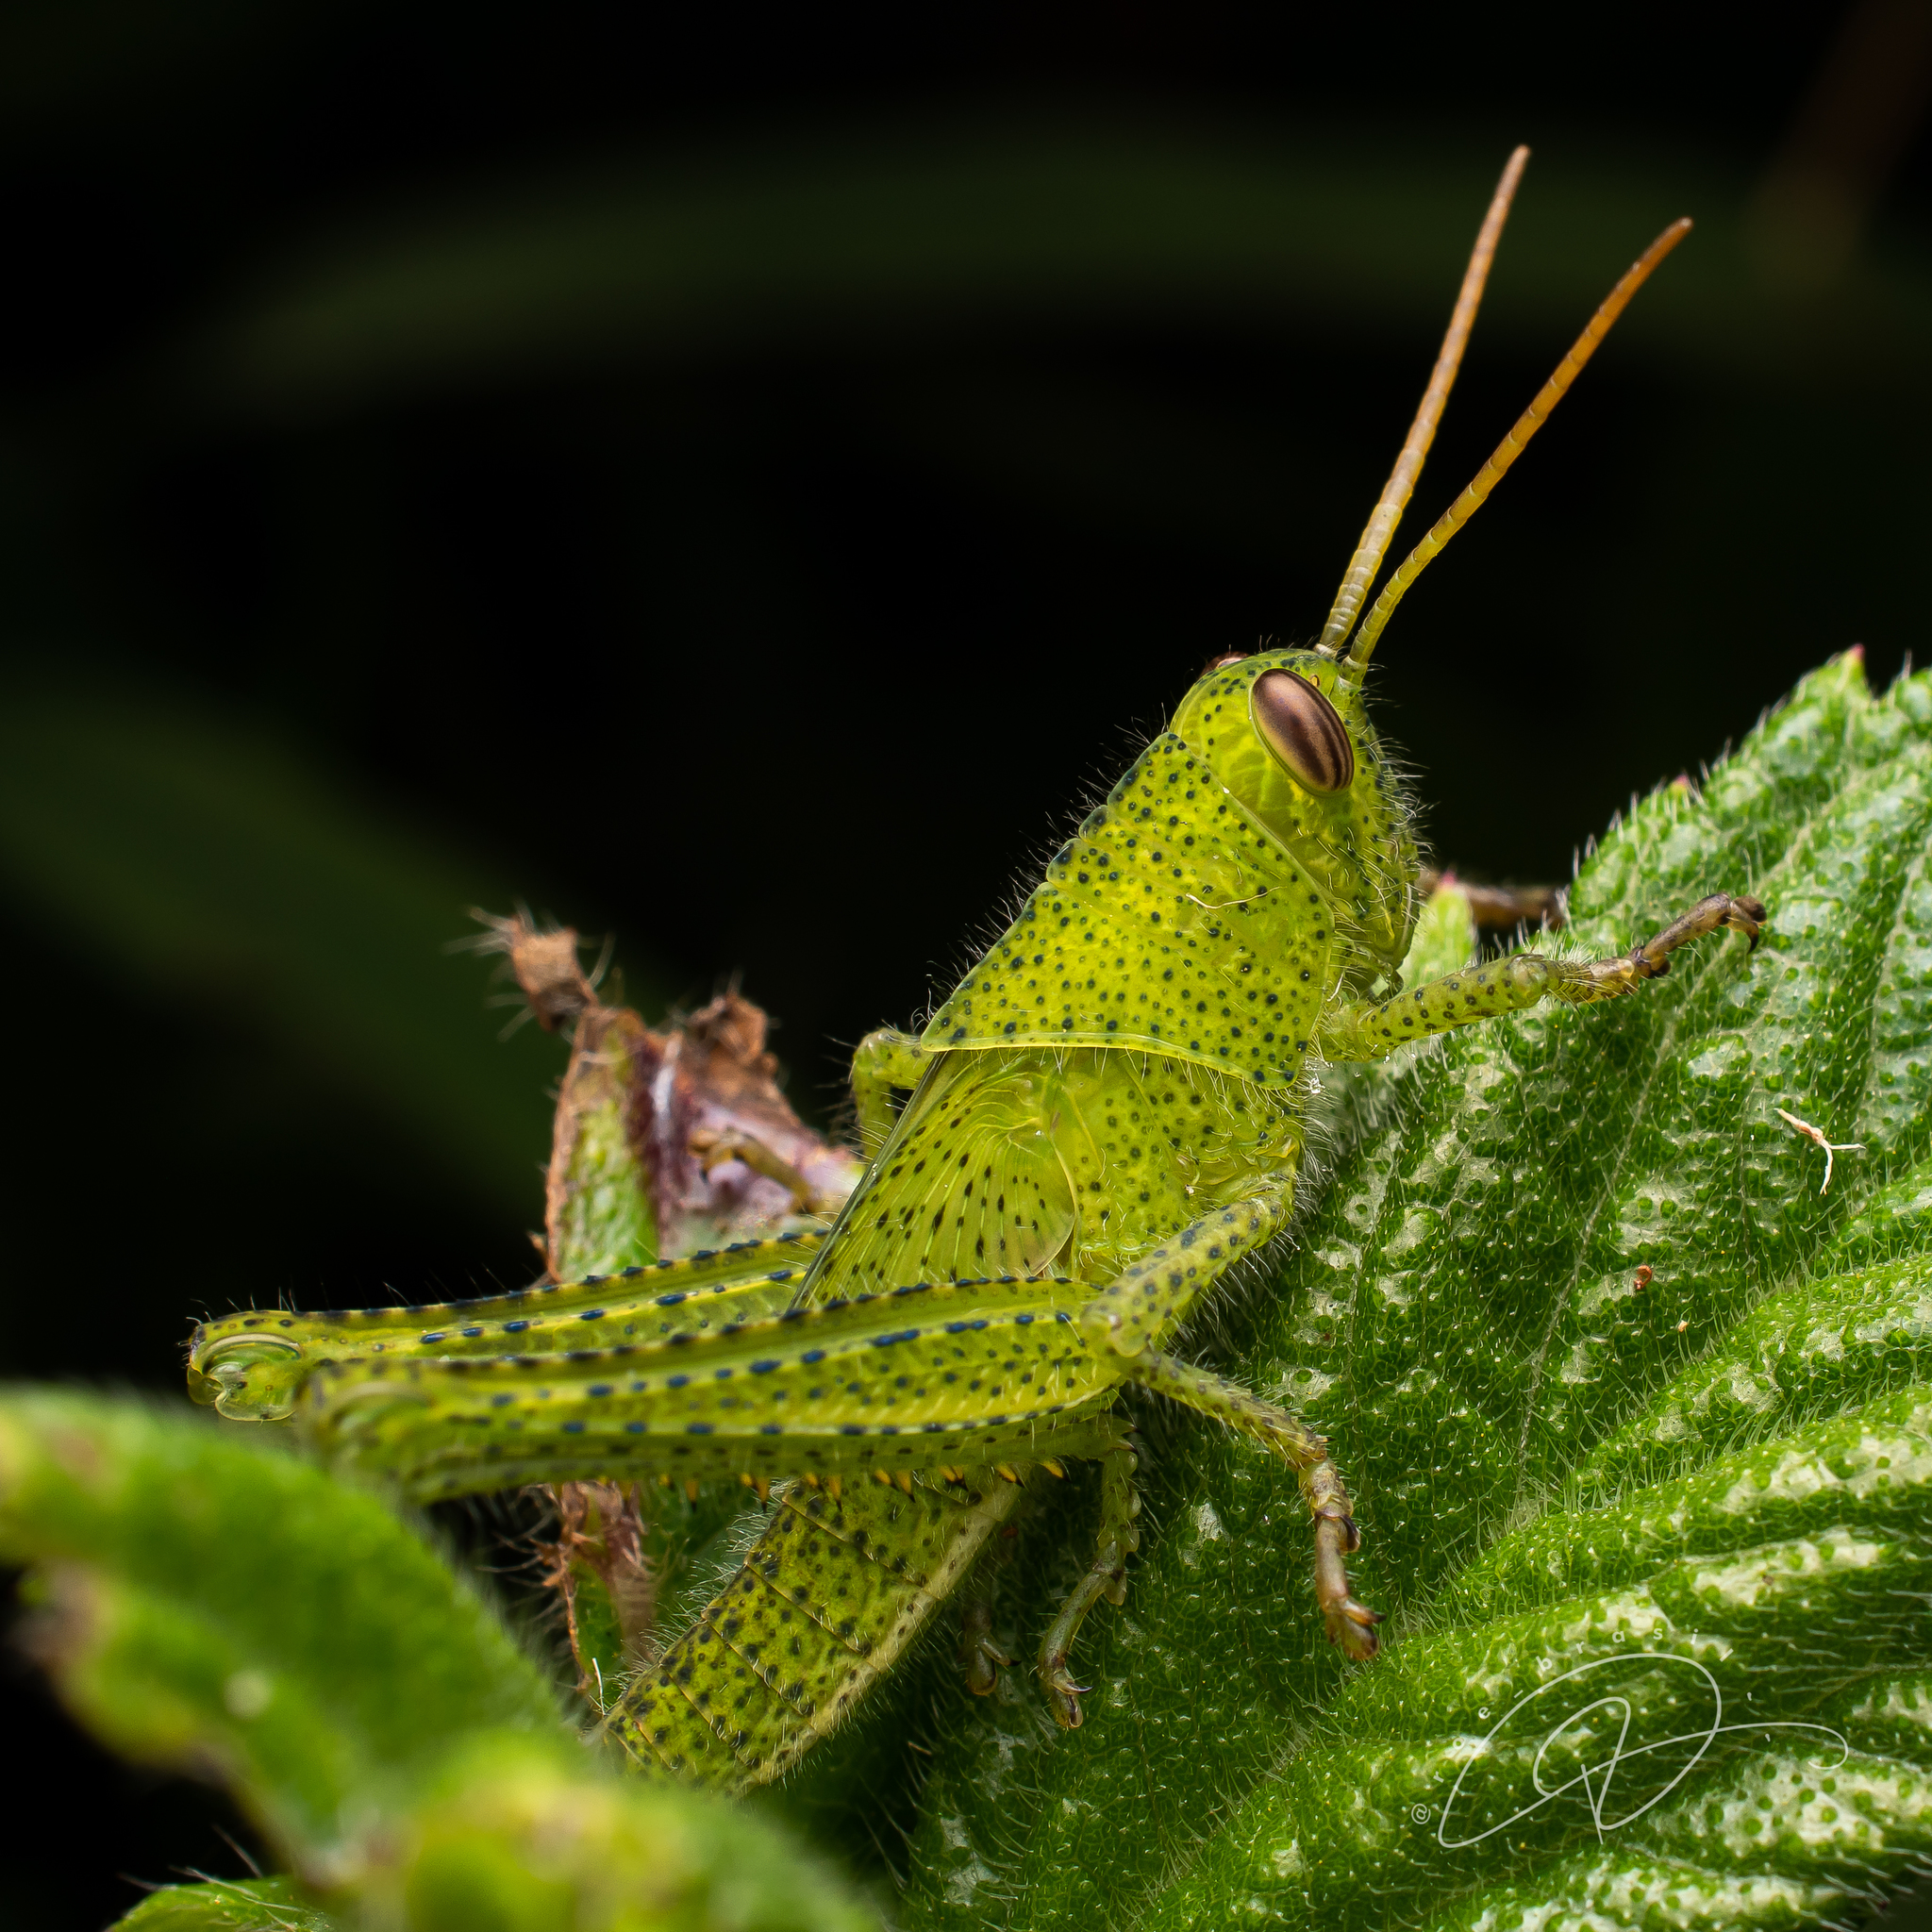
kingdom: Animalia
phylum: Arthropoda
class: Insecta
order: Orthoptera
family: Acrididae
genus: Schistocerca
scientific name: Schistocerca flavofasciata
